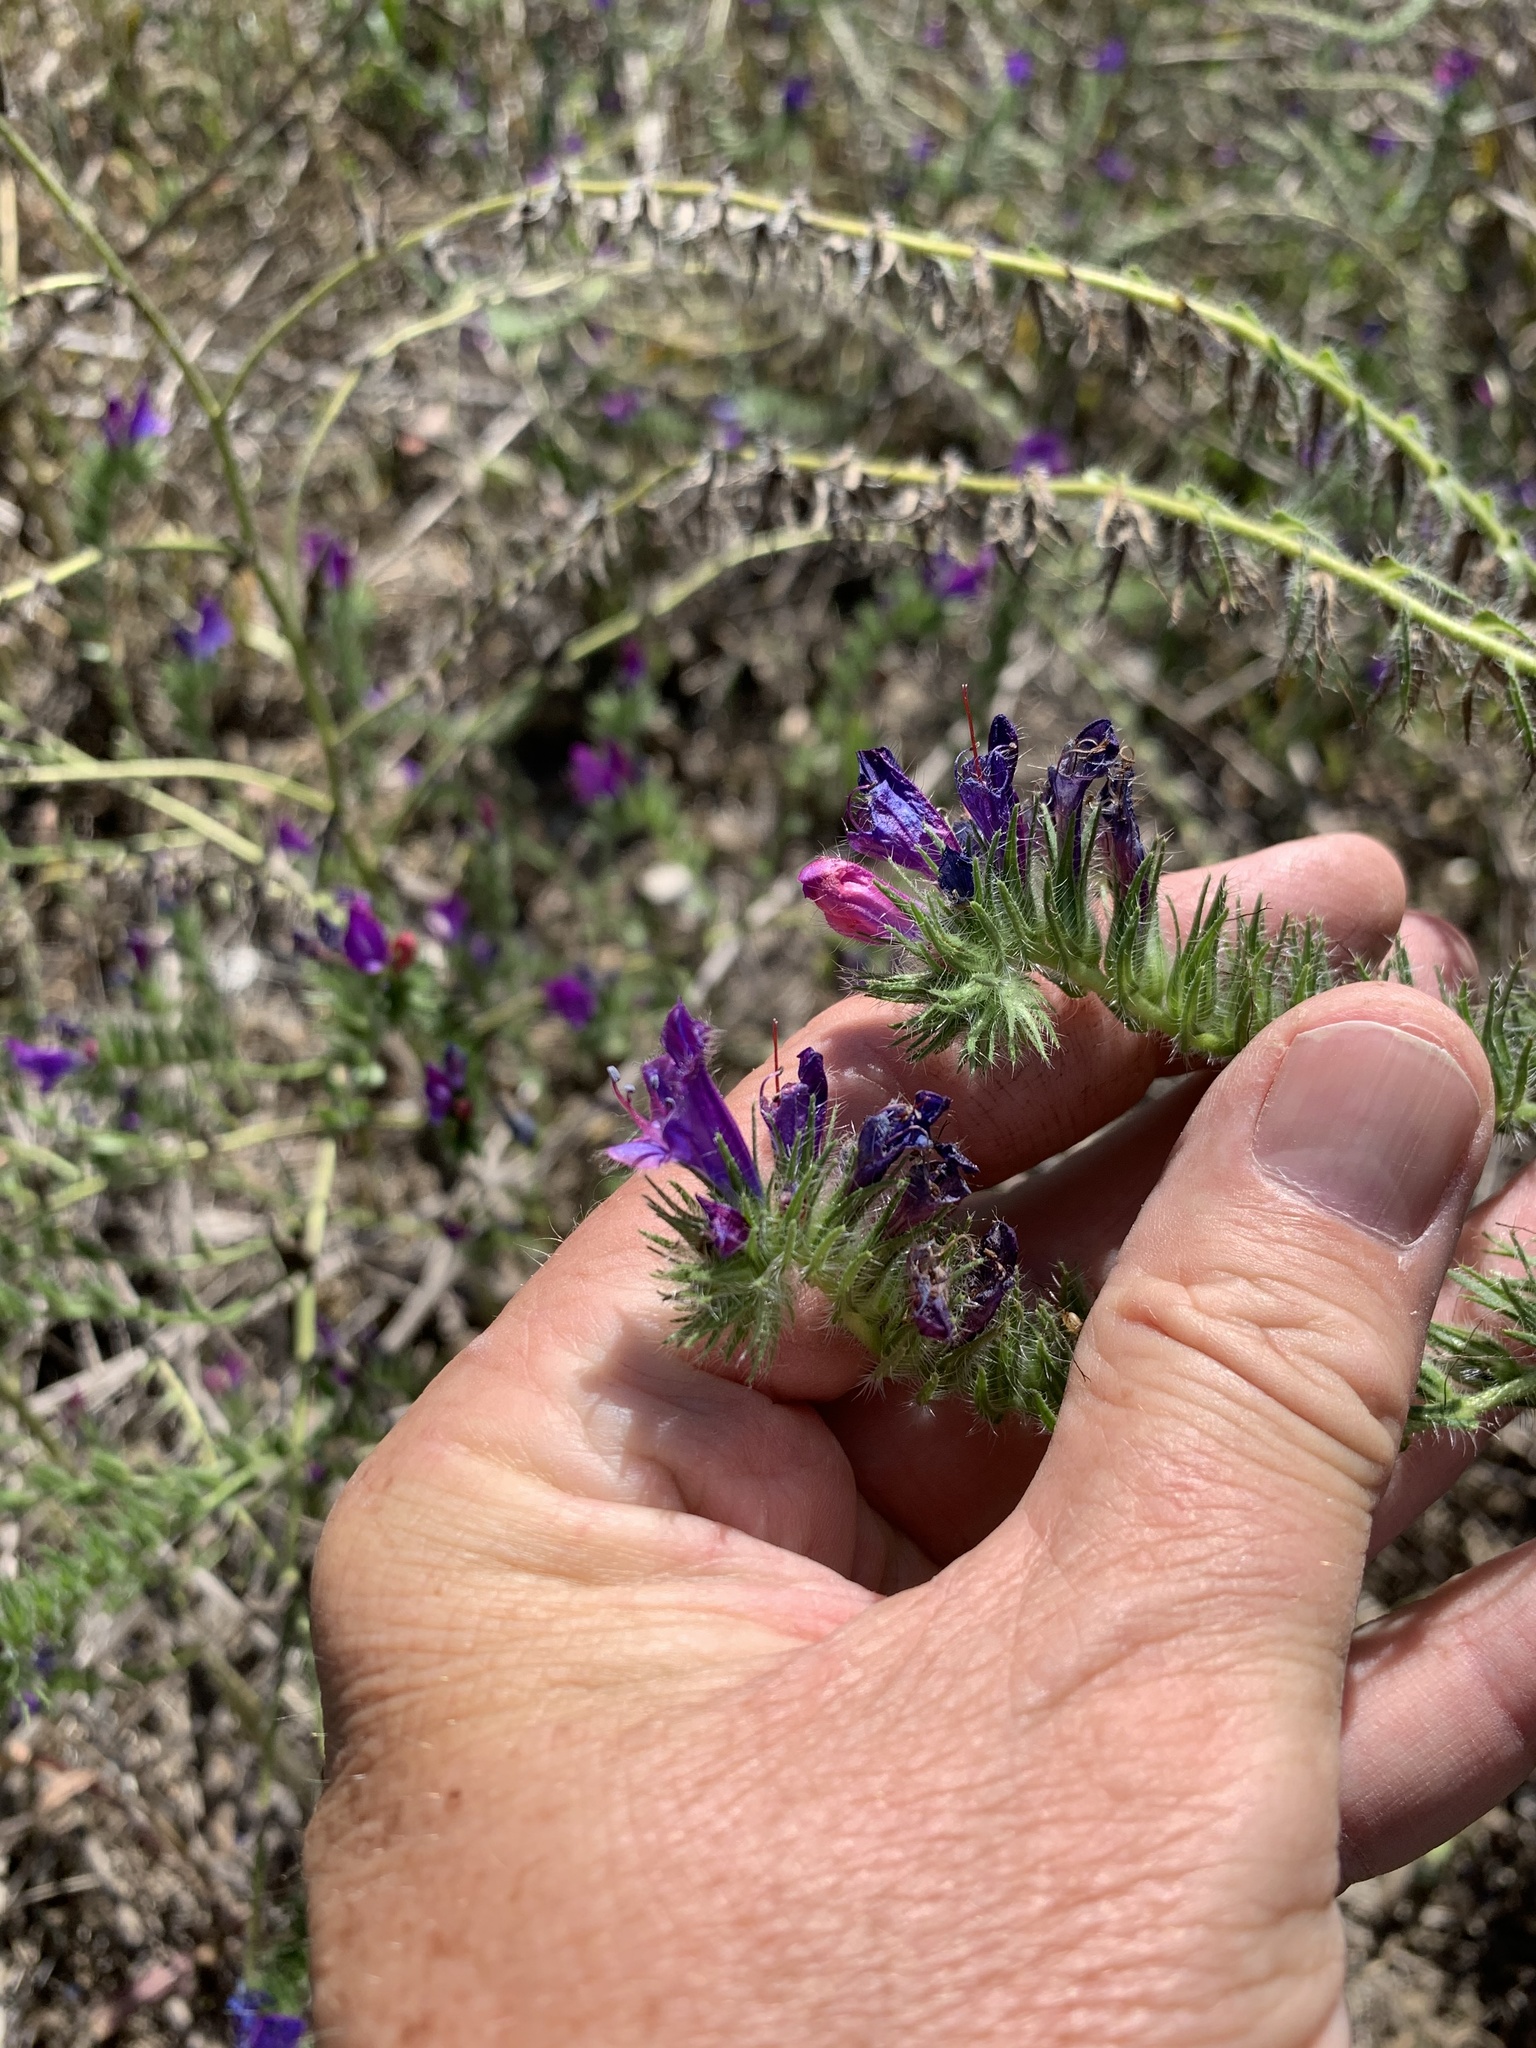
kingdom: Plantae
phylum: Tracheophyta
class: Magnoliopsida
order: Boraginales
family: Boraginaceae
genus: Echium
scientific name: Echium plantagineum
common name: Purple viper's-bugloss
